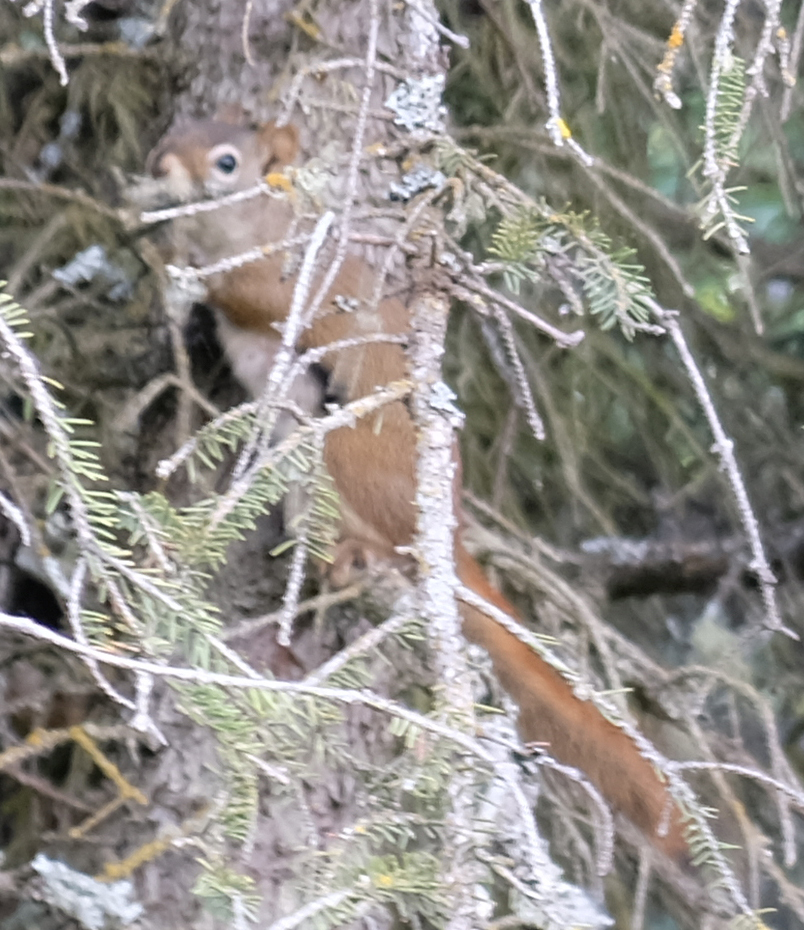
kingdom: Animalia
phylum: Chordata
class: Mammalia
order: Rodentia
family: Sciuridae
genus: Tamiasciurus
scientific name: Tamiasciurus hudsonicus
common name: Red squirrel
